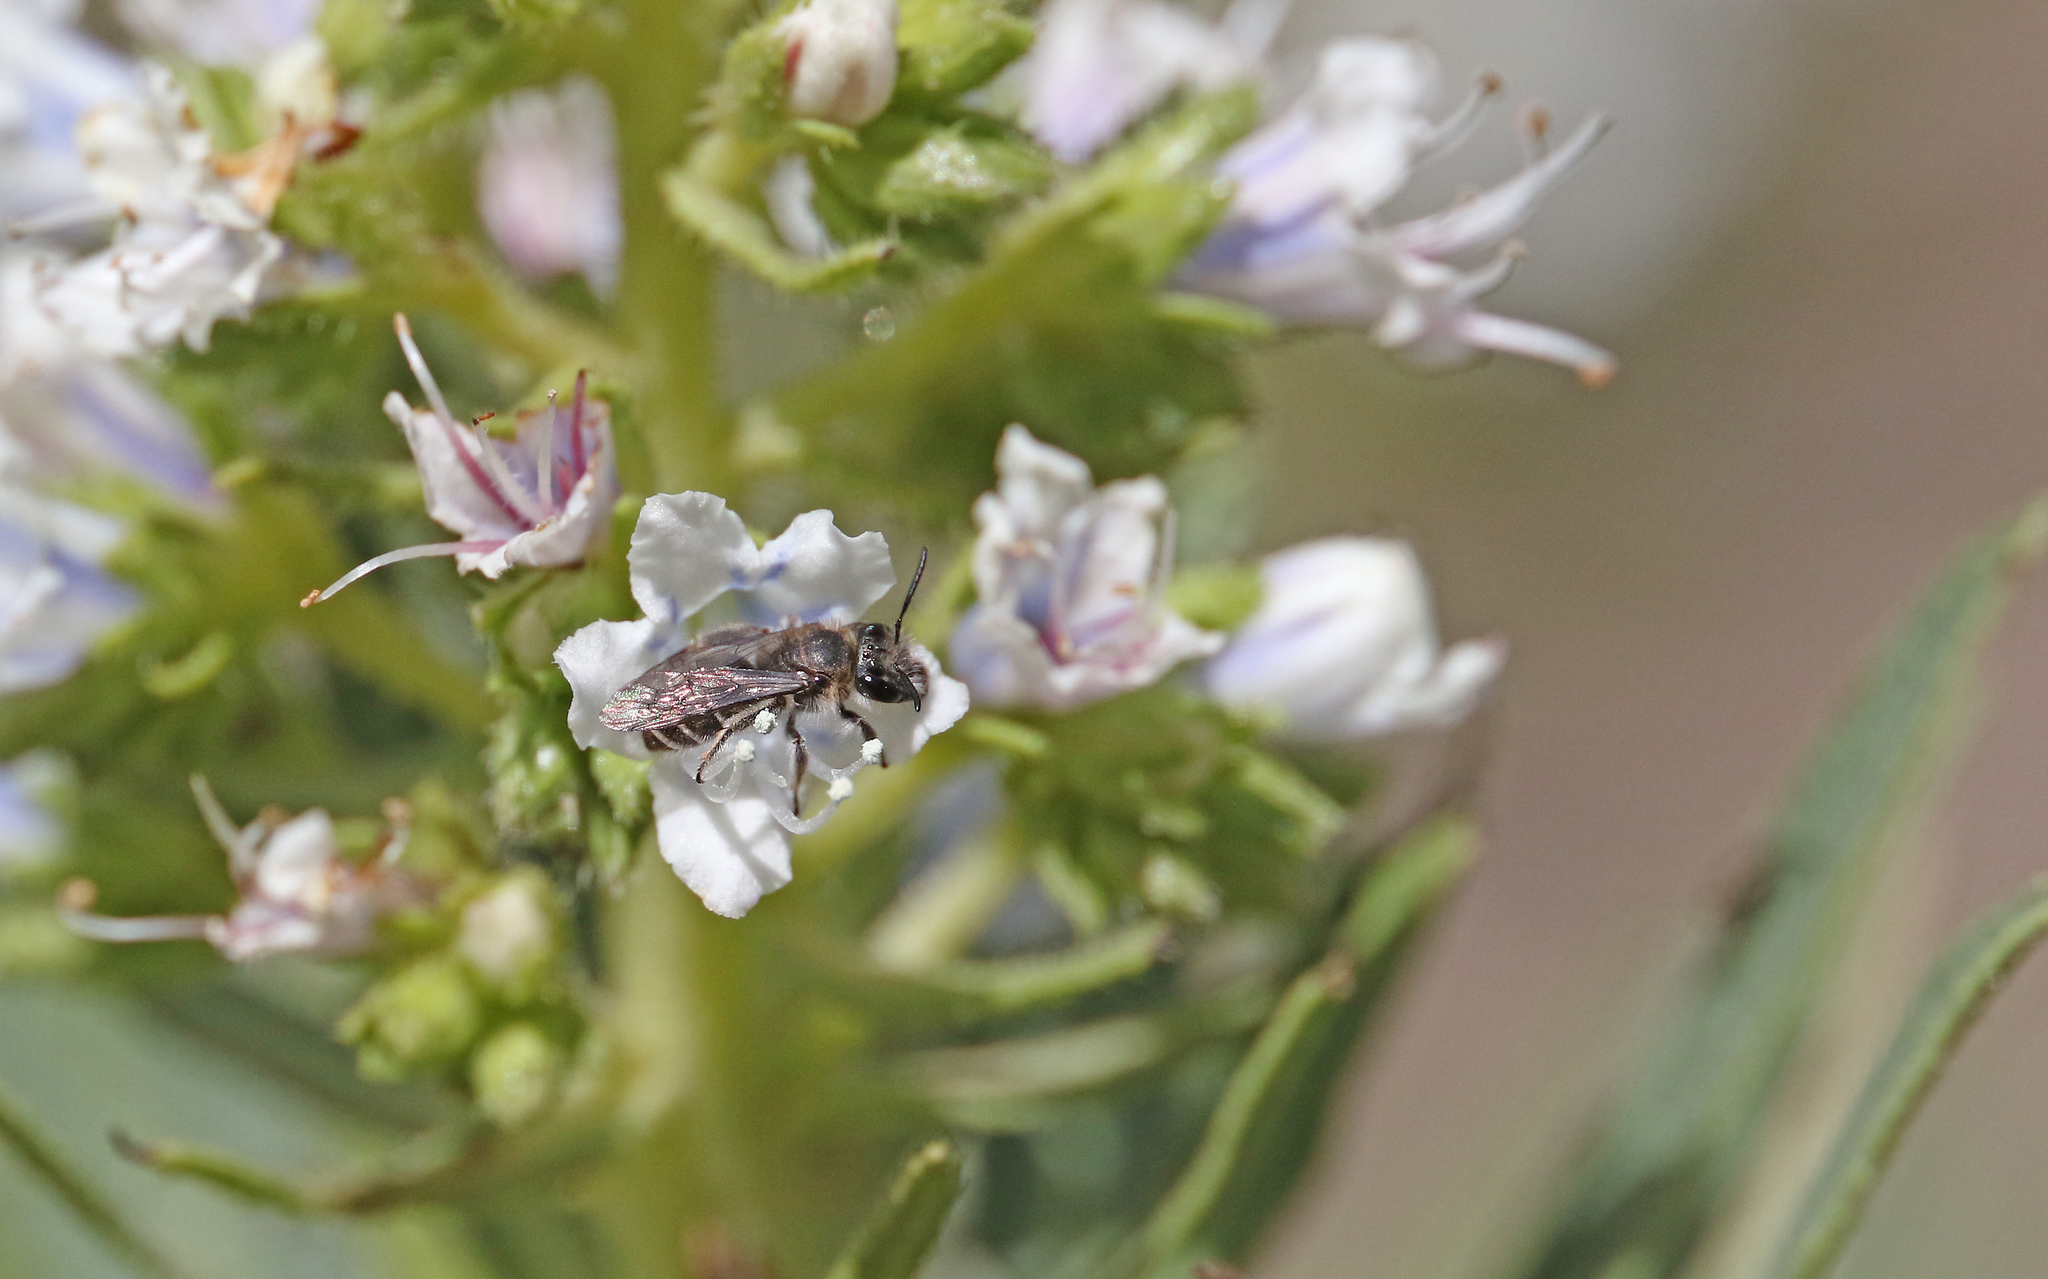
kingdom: Animalia
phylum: Arthropoda
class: Insecta
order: Hymenoptera
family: Andrenidae
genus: Andrena
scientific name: Andrena chalcogastra
